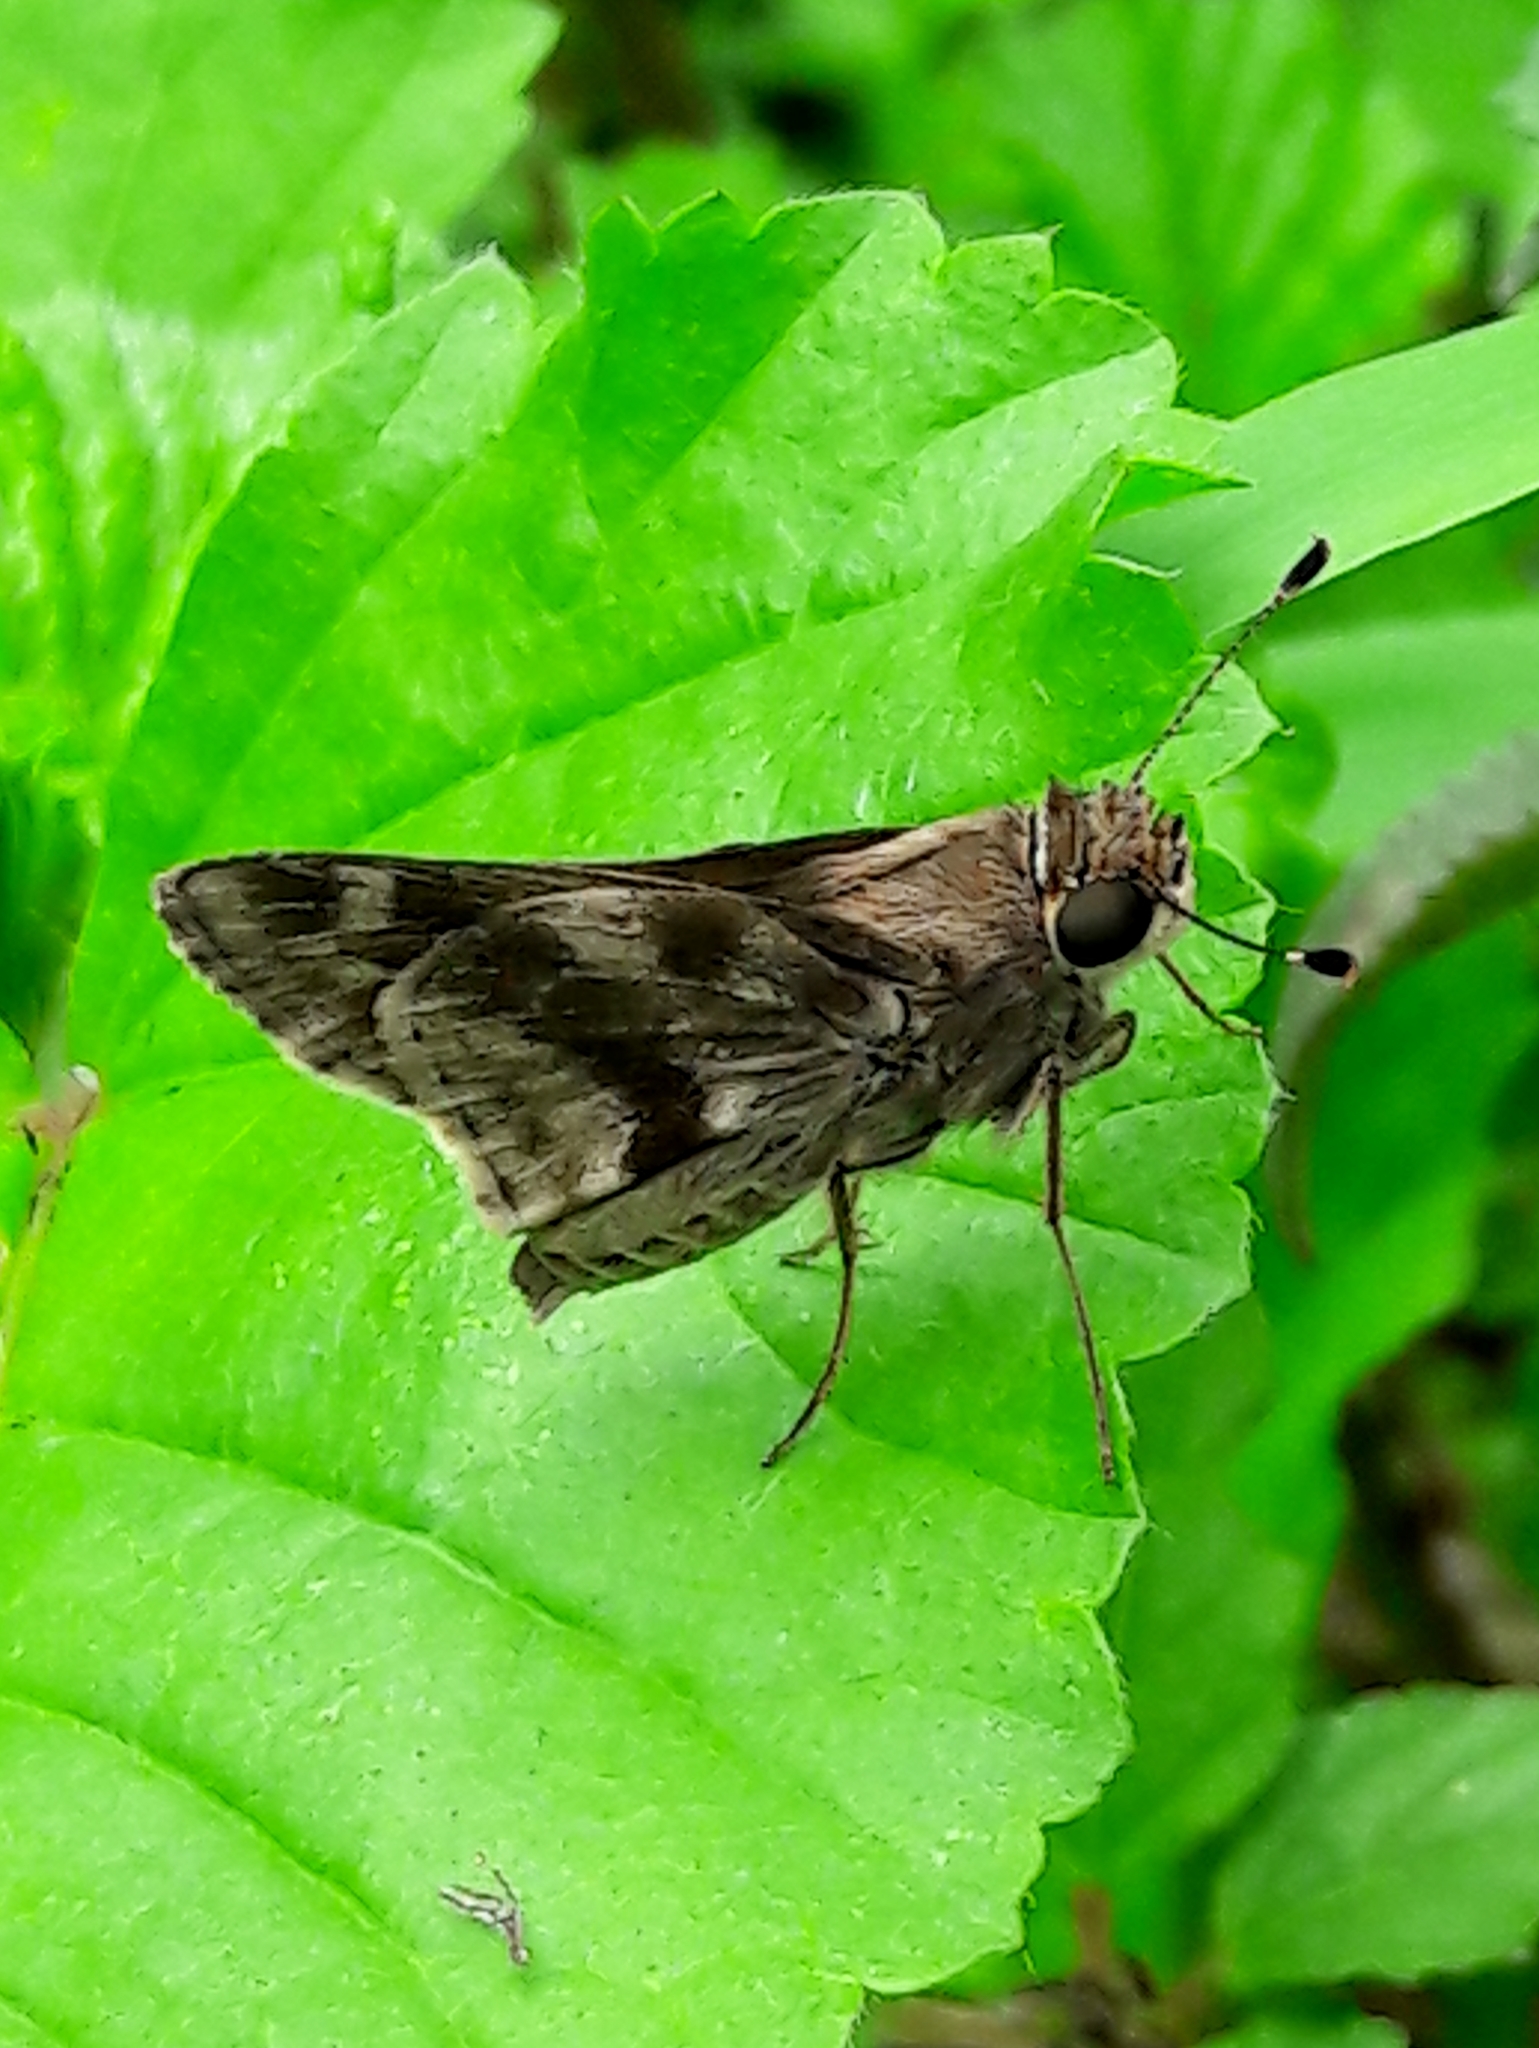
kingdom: Animalia
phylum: Arthropoda
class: Insecta
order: Lepidoptera
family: Hesperiidae
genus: Pompeius
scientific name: Pompeius pompeius
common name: Pompeius skipper
